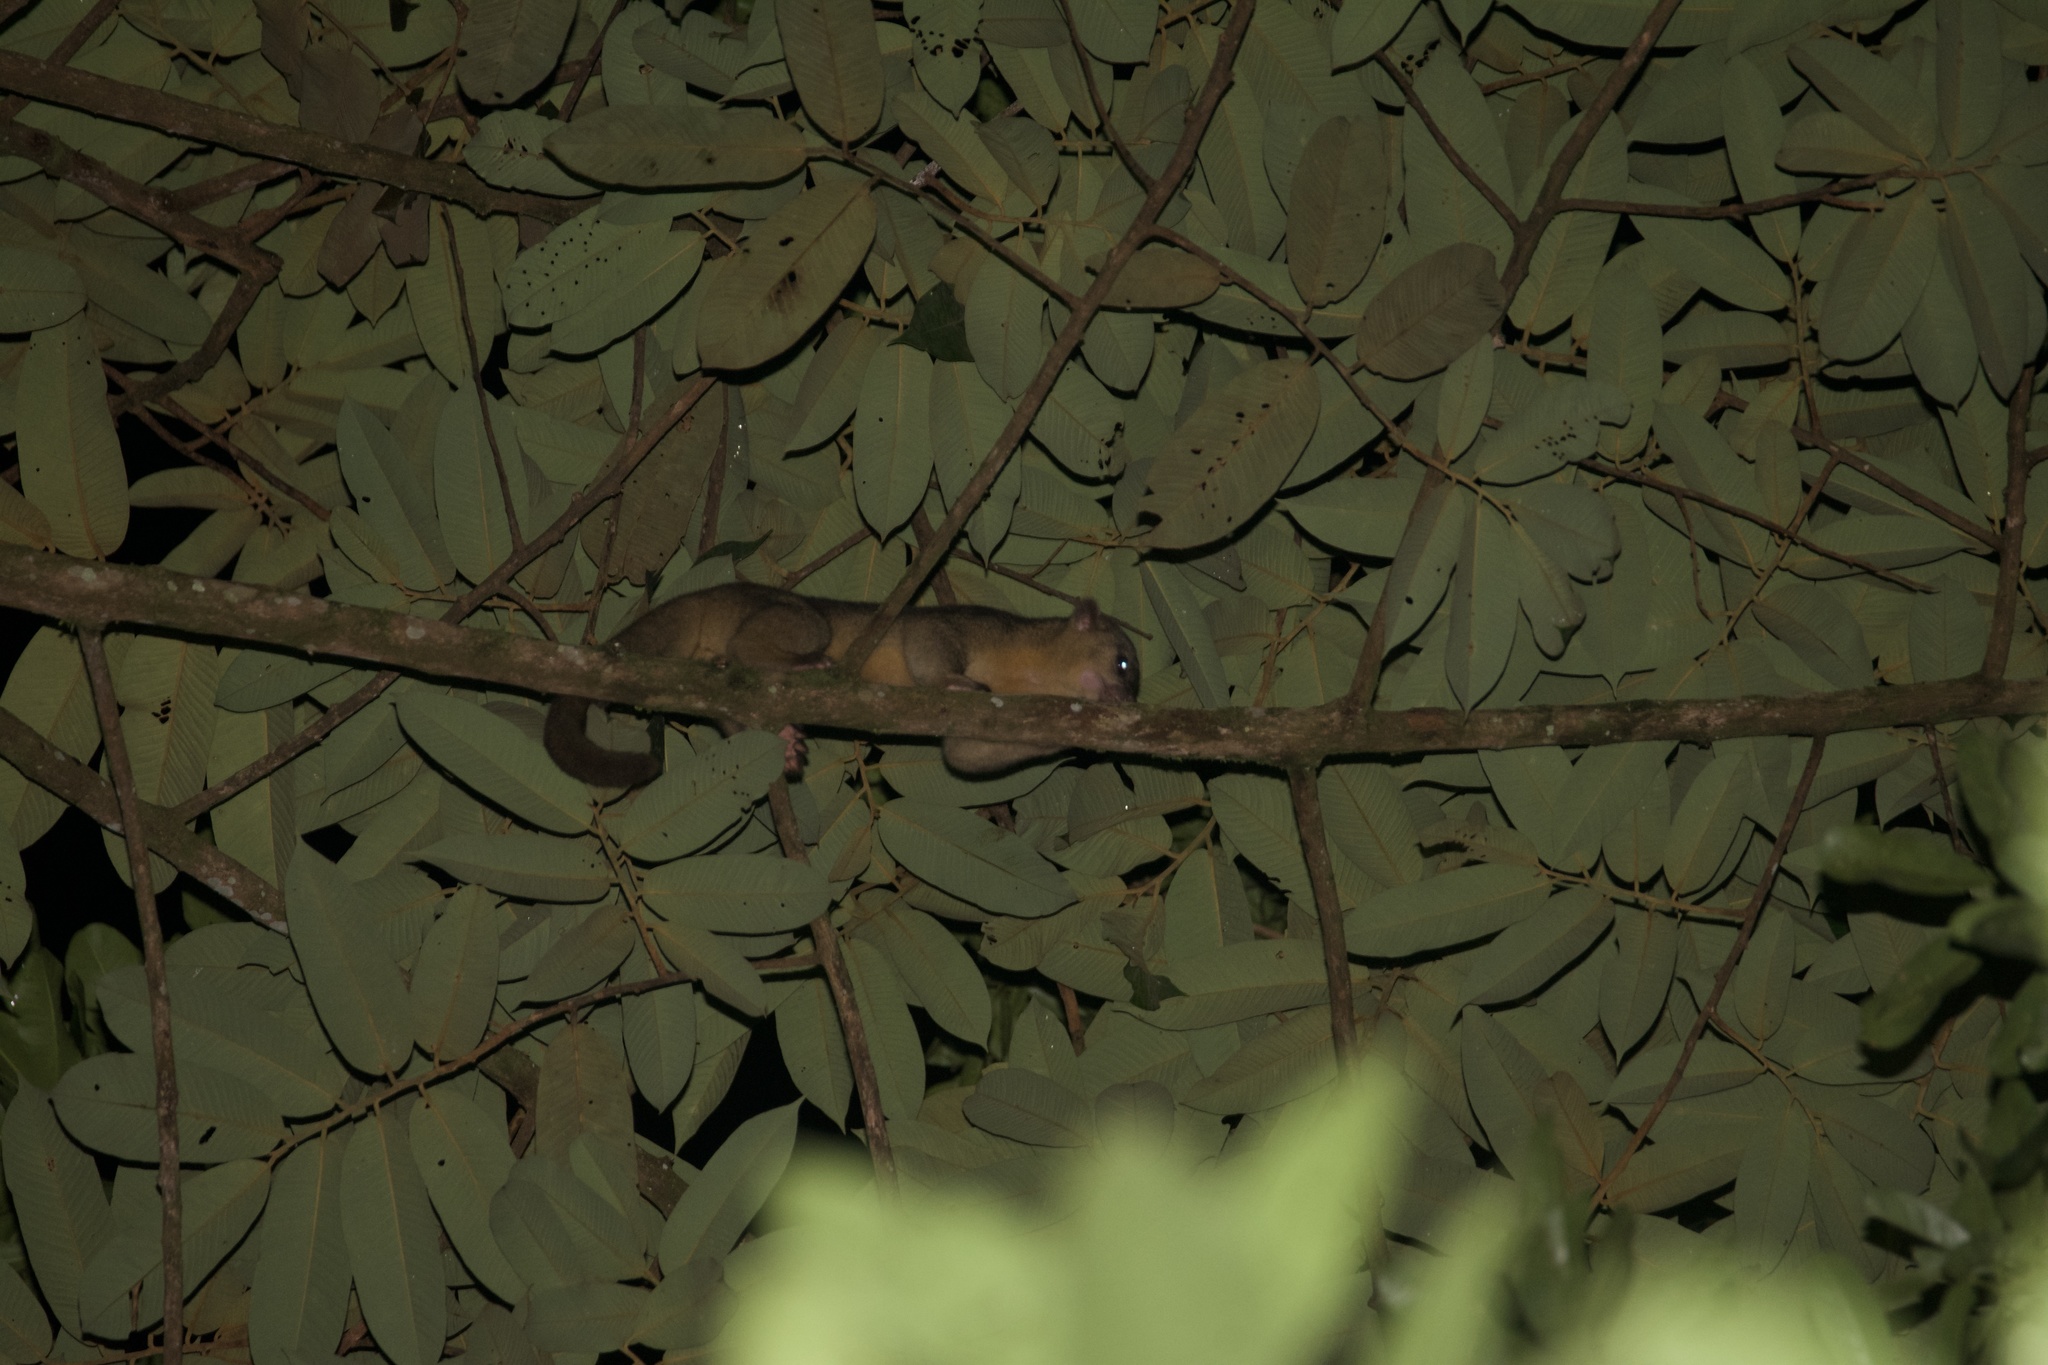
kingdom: Animalia
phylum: Chordata
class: Mammalia
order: Carnivora
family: Procyonidae
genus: Potos
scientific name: Potos flavus
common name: Kinkajou
